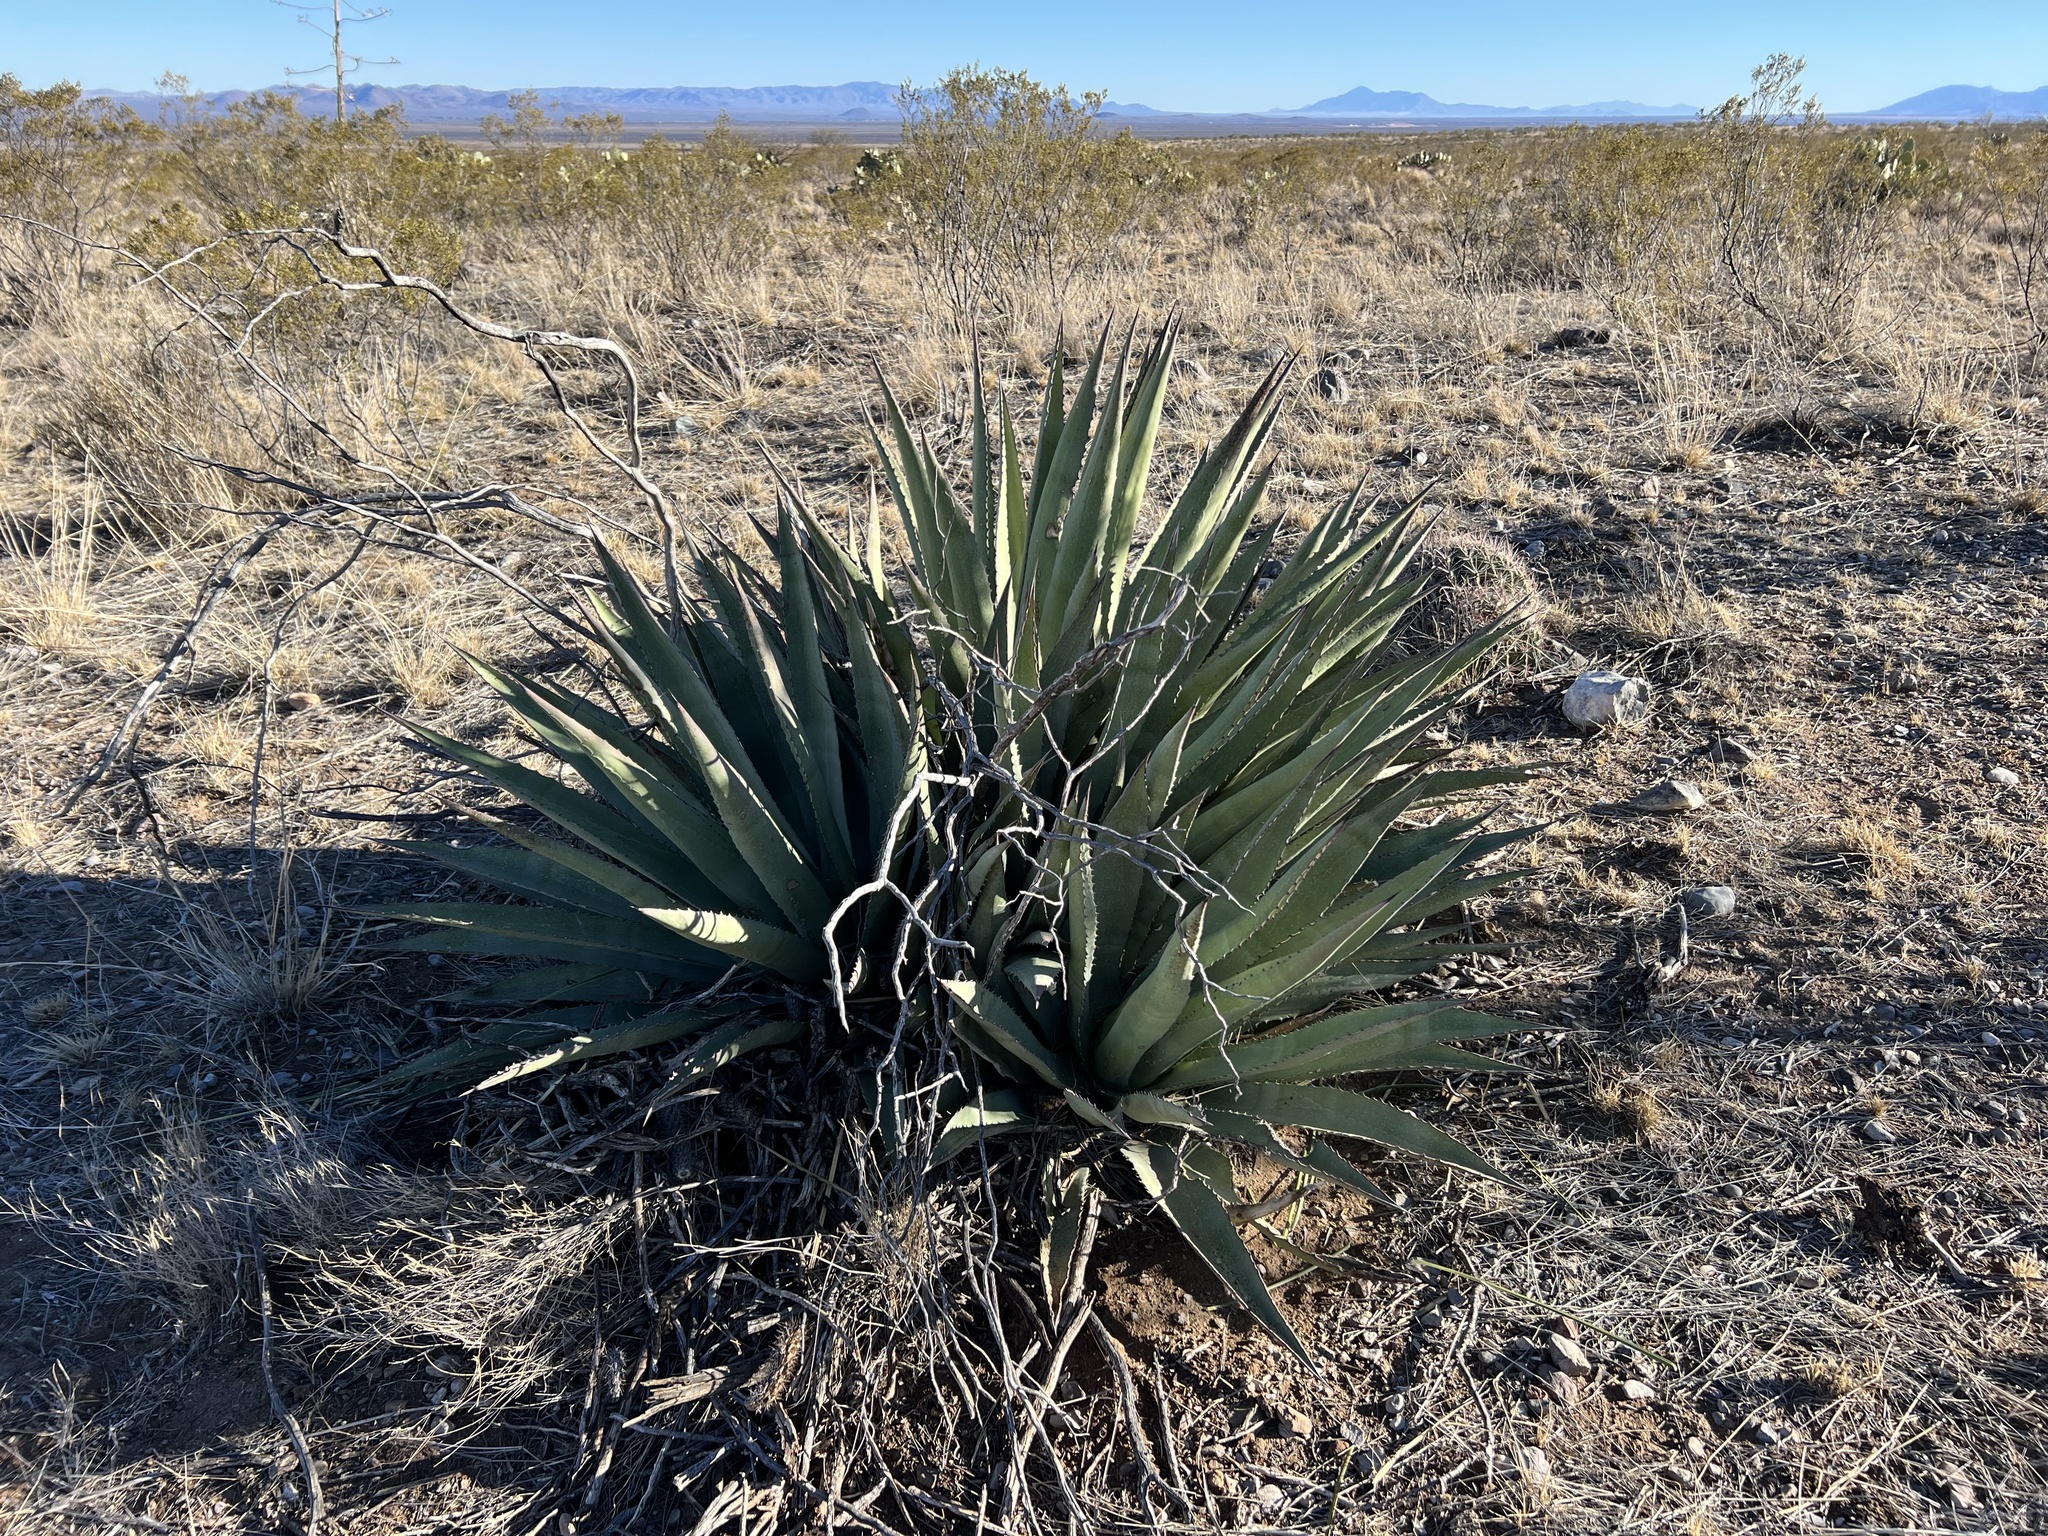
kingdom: Plantae
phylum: Tracheophyta
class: Liliopsida
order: Asparagales
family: Asparagaceae
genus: Agave
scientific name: Agave palmeri
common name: Palmer agave
